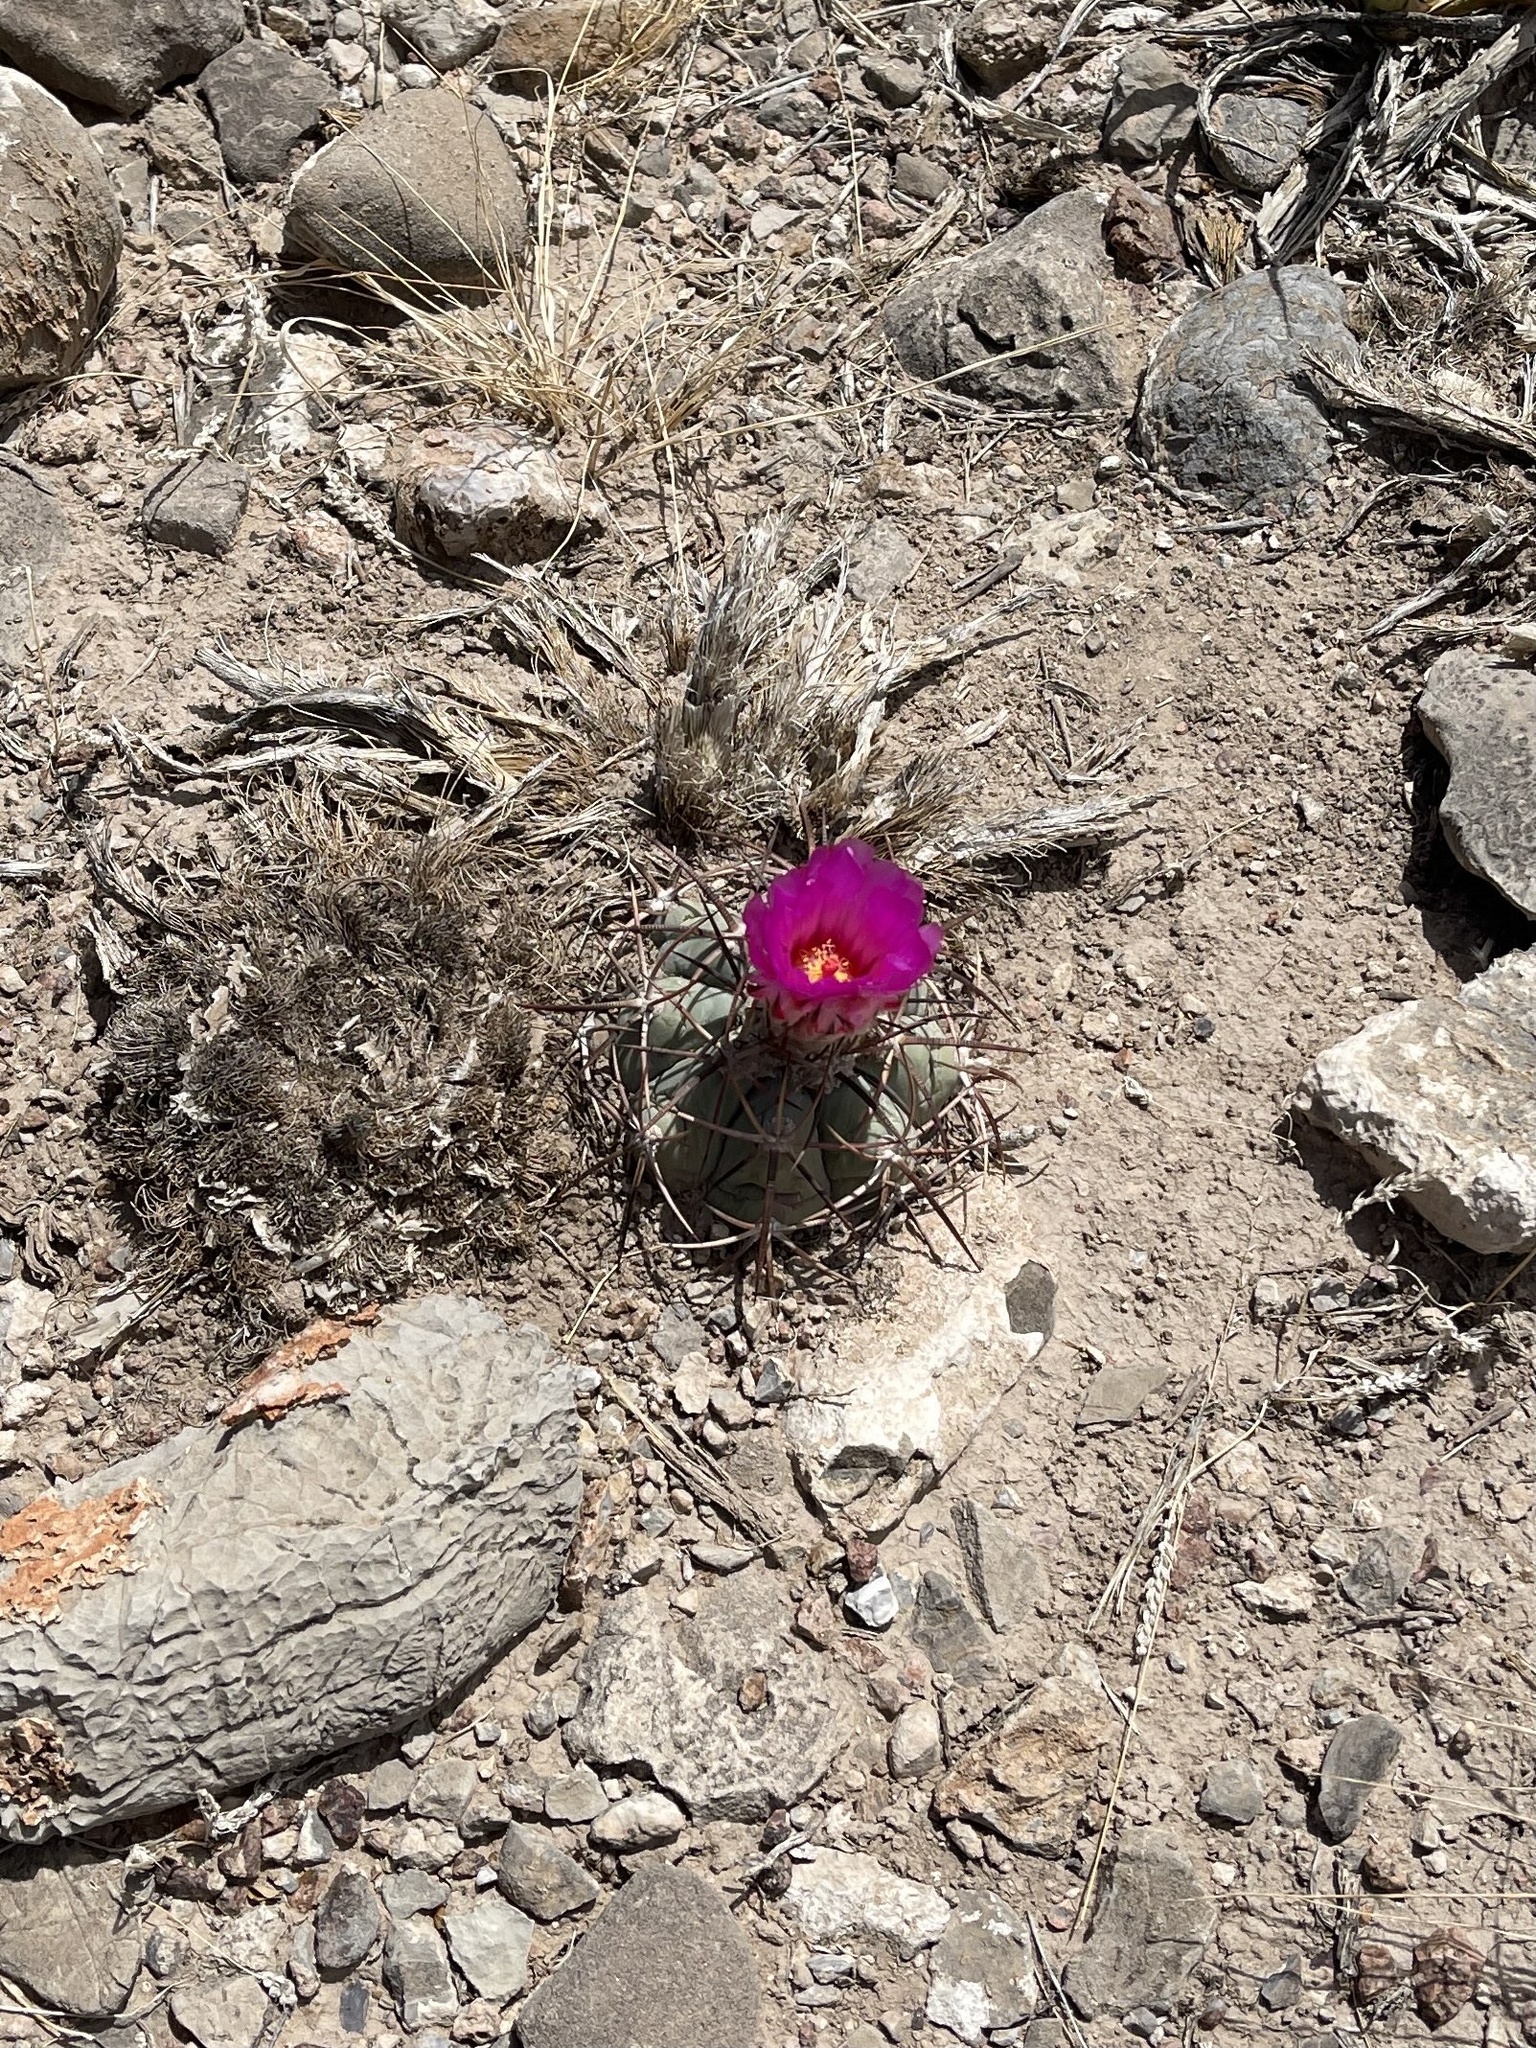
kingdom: Plantae
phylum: Tracheophyta
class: Magnoliopsida
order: Caryophyllales
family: Cactaceae
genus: Echinocactus
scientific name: Echinocactus horizonthalonius
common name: Devilshead
